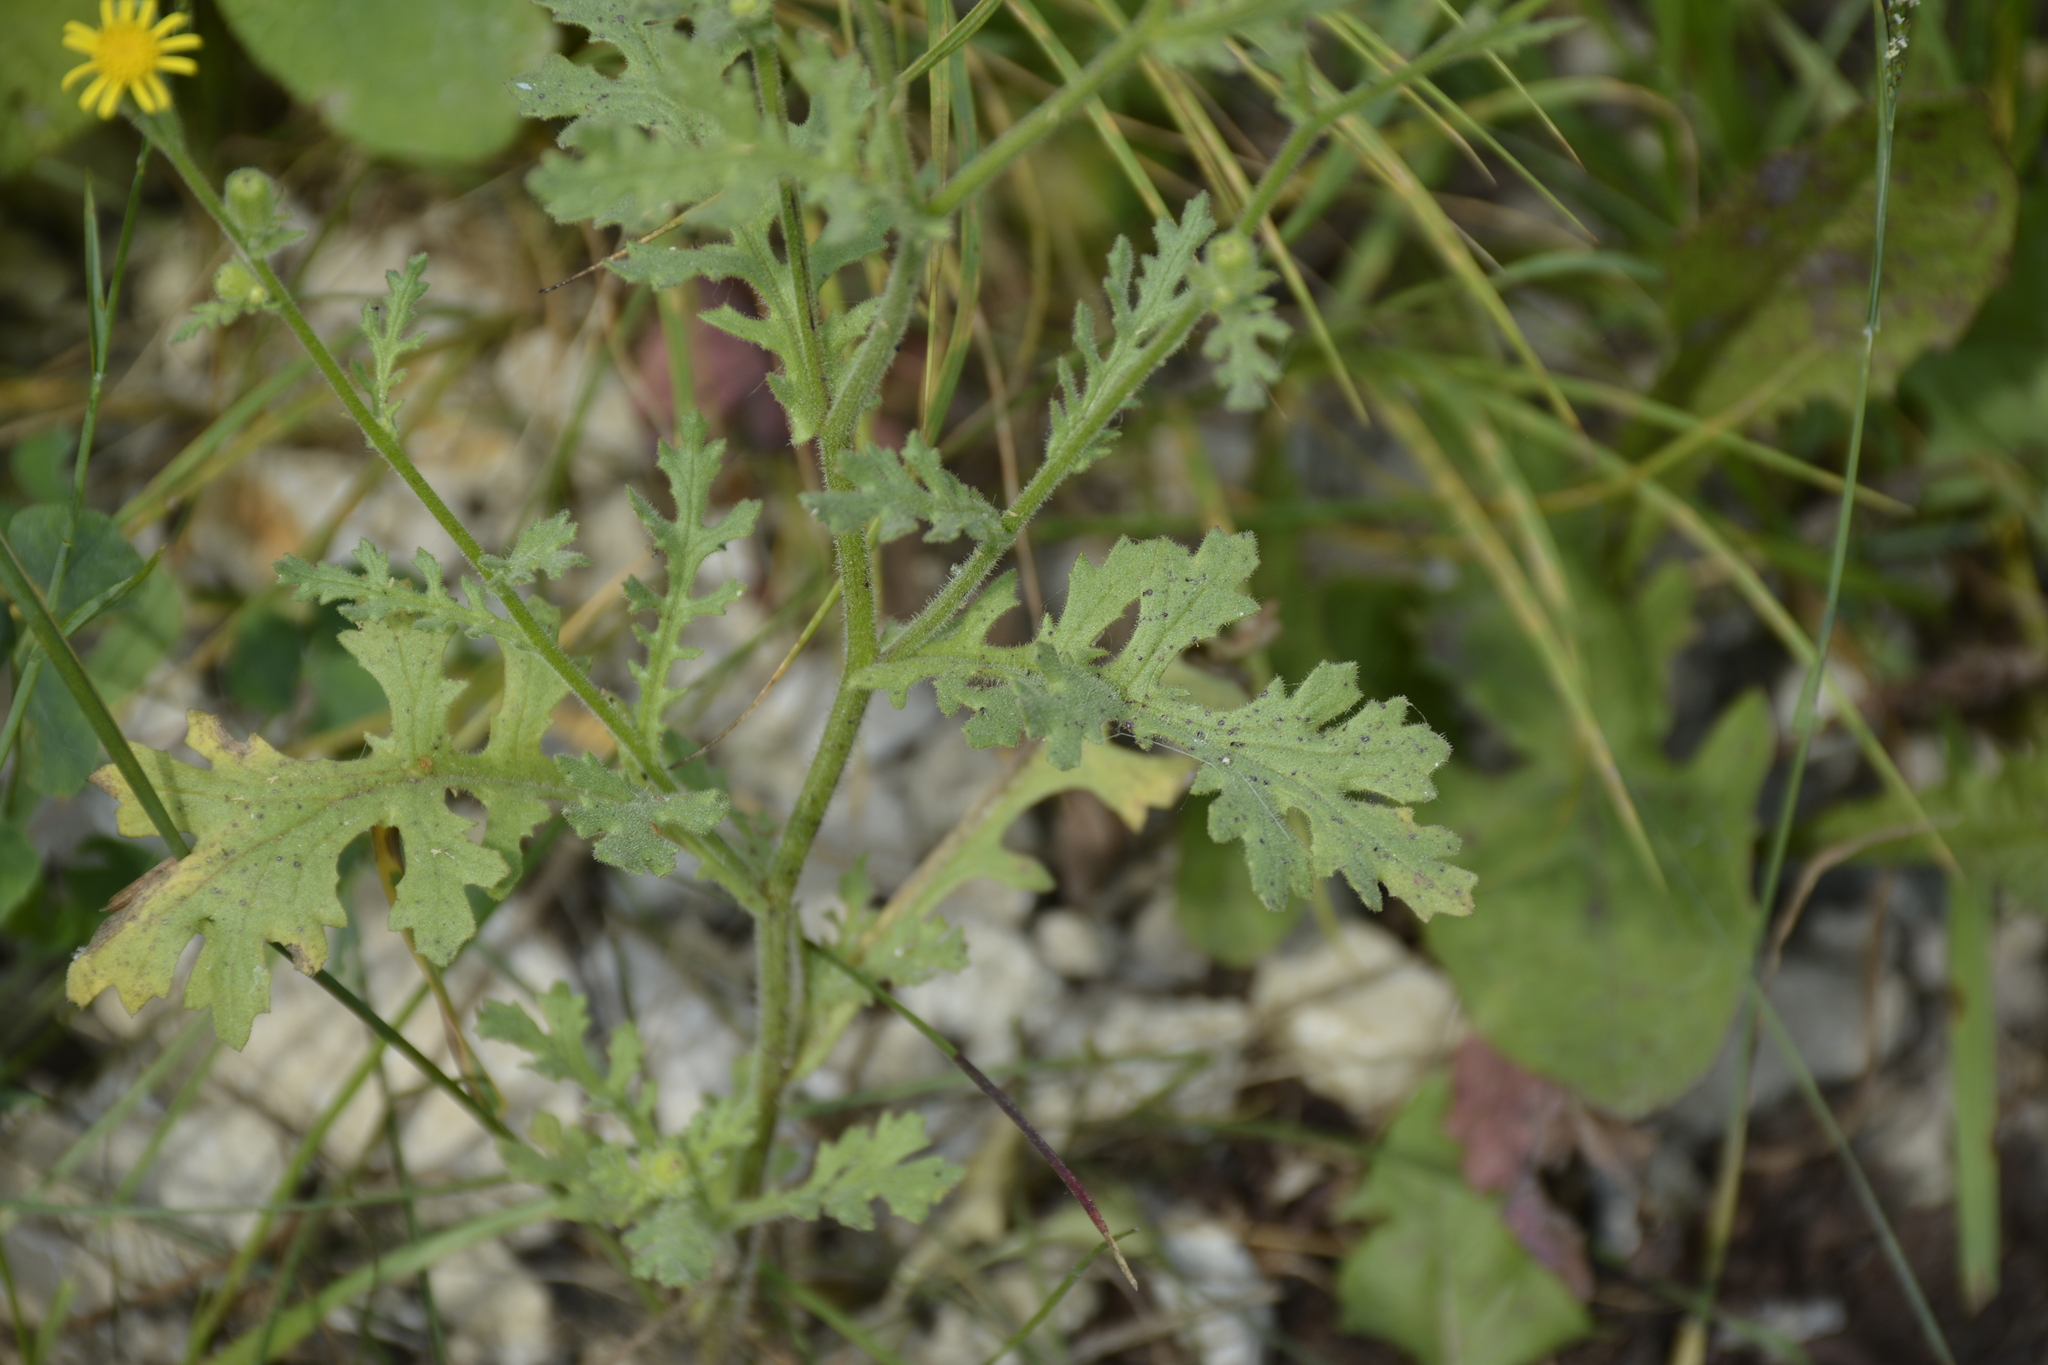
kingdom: Plantae
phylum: Tracheophyta
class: Magnoliopsida
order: Asterales
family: Asteraceae
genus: Senecio
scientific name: Senecio viscosus
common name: Sticky groundsel
